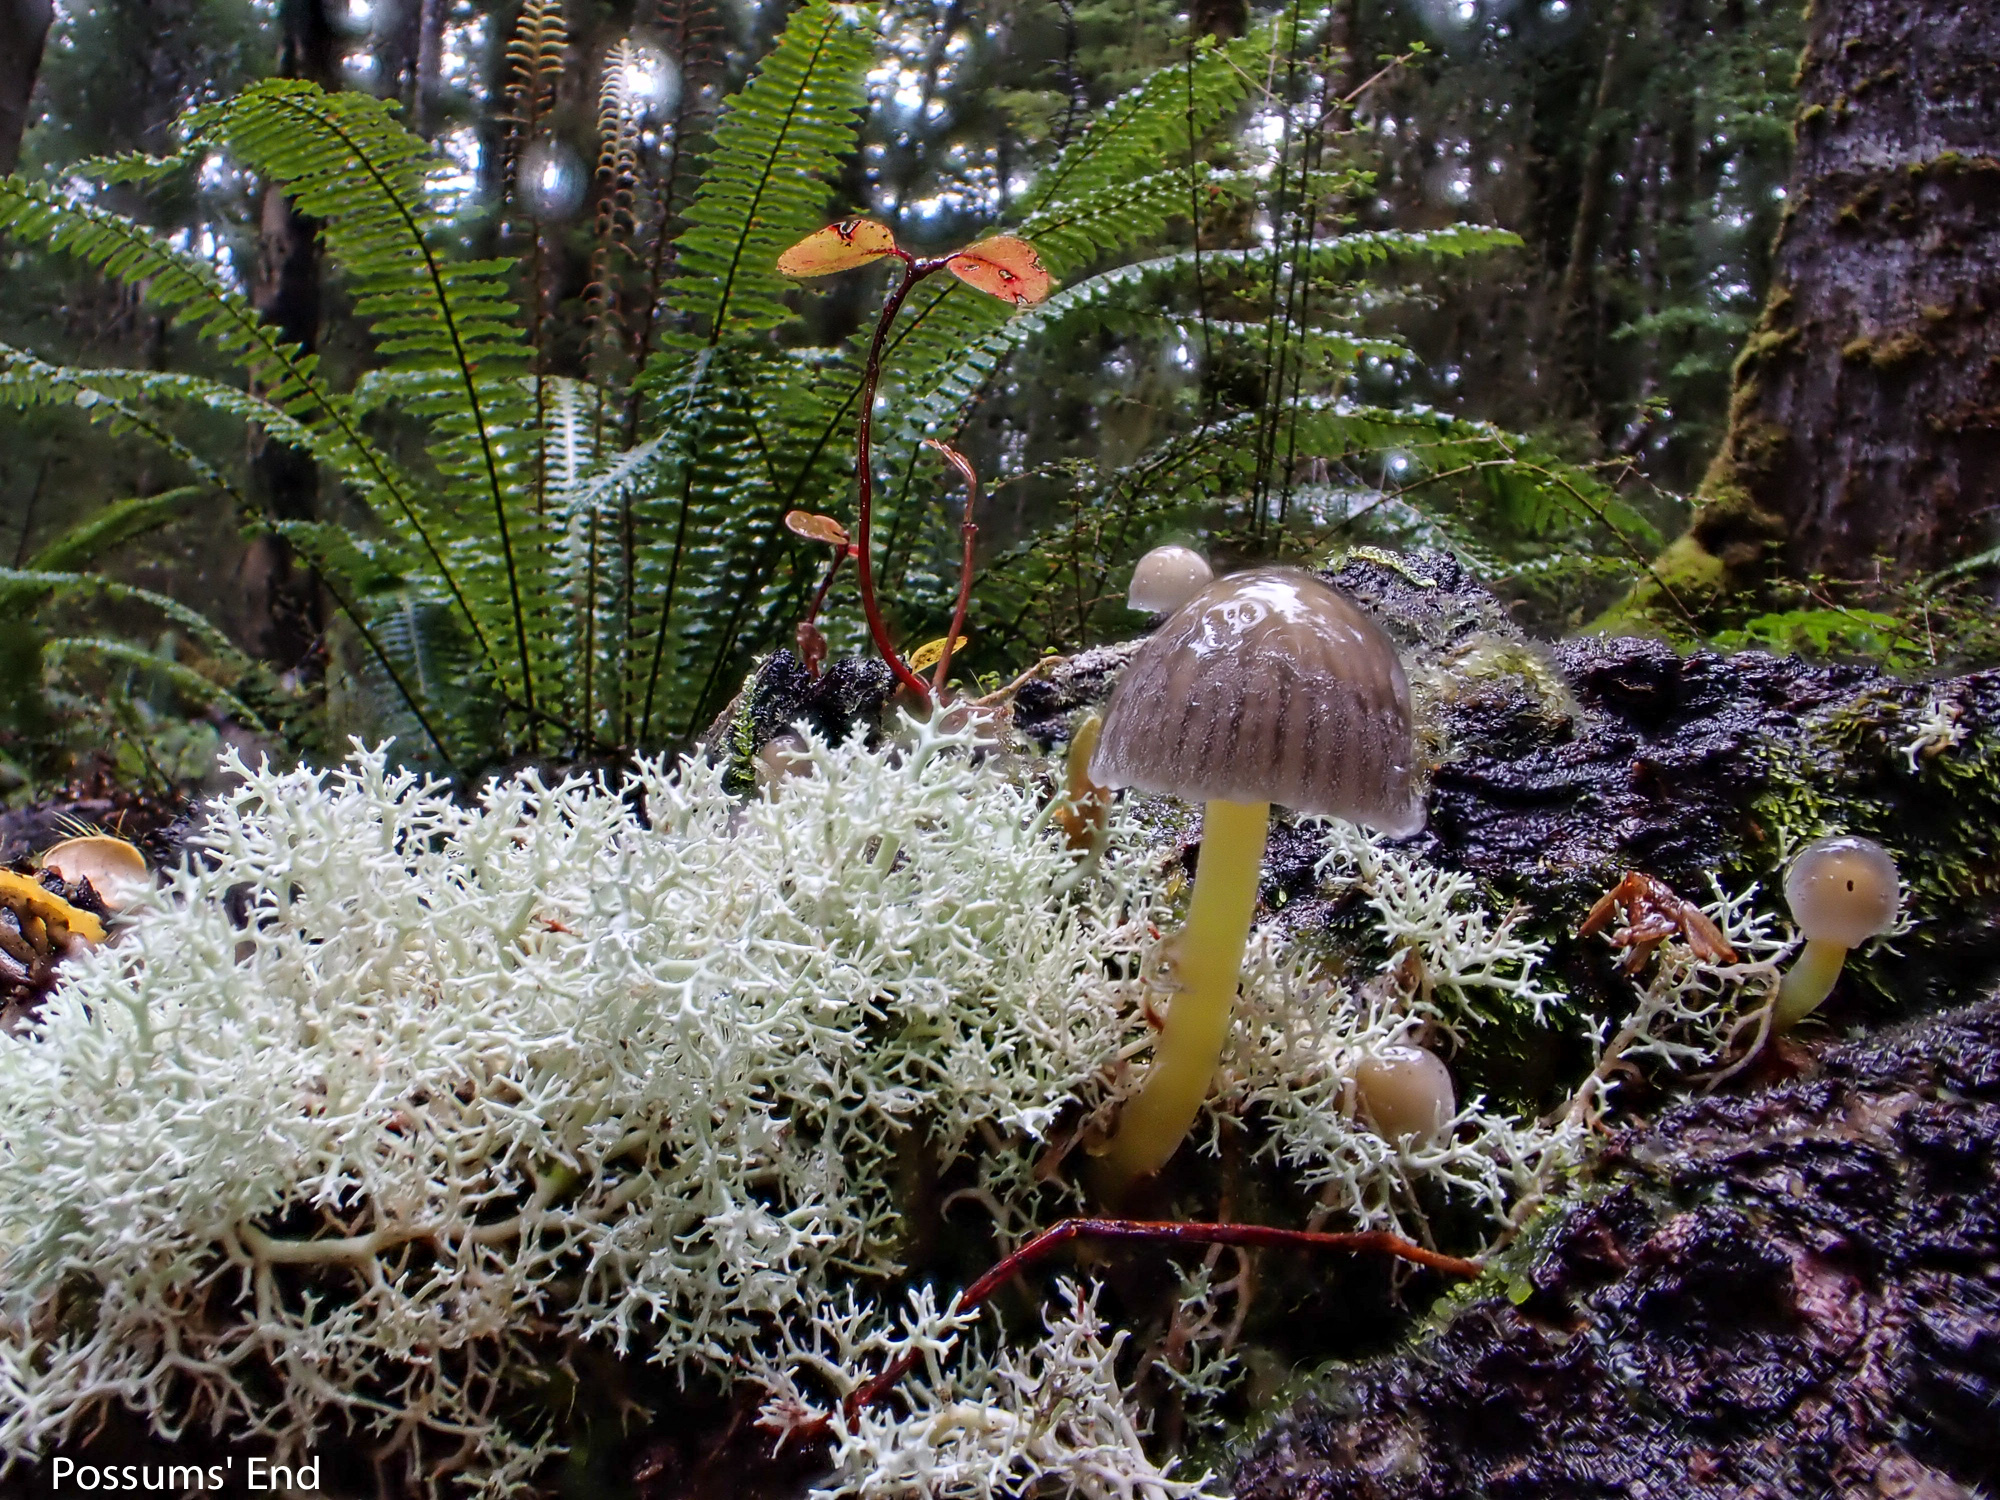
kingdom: Fungi
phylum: Basidiomycota
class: Agaricomycetes
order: Agaricales
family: Mycenaceae
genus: Mycena
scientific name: Mycena subviscosa
